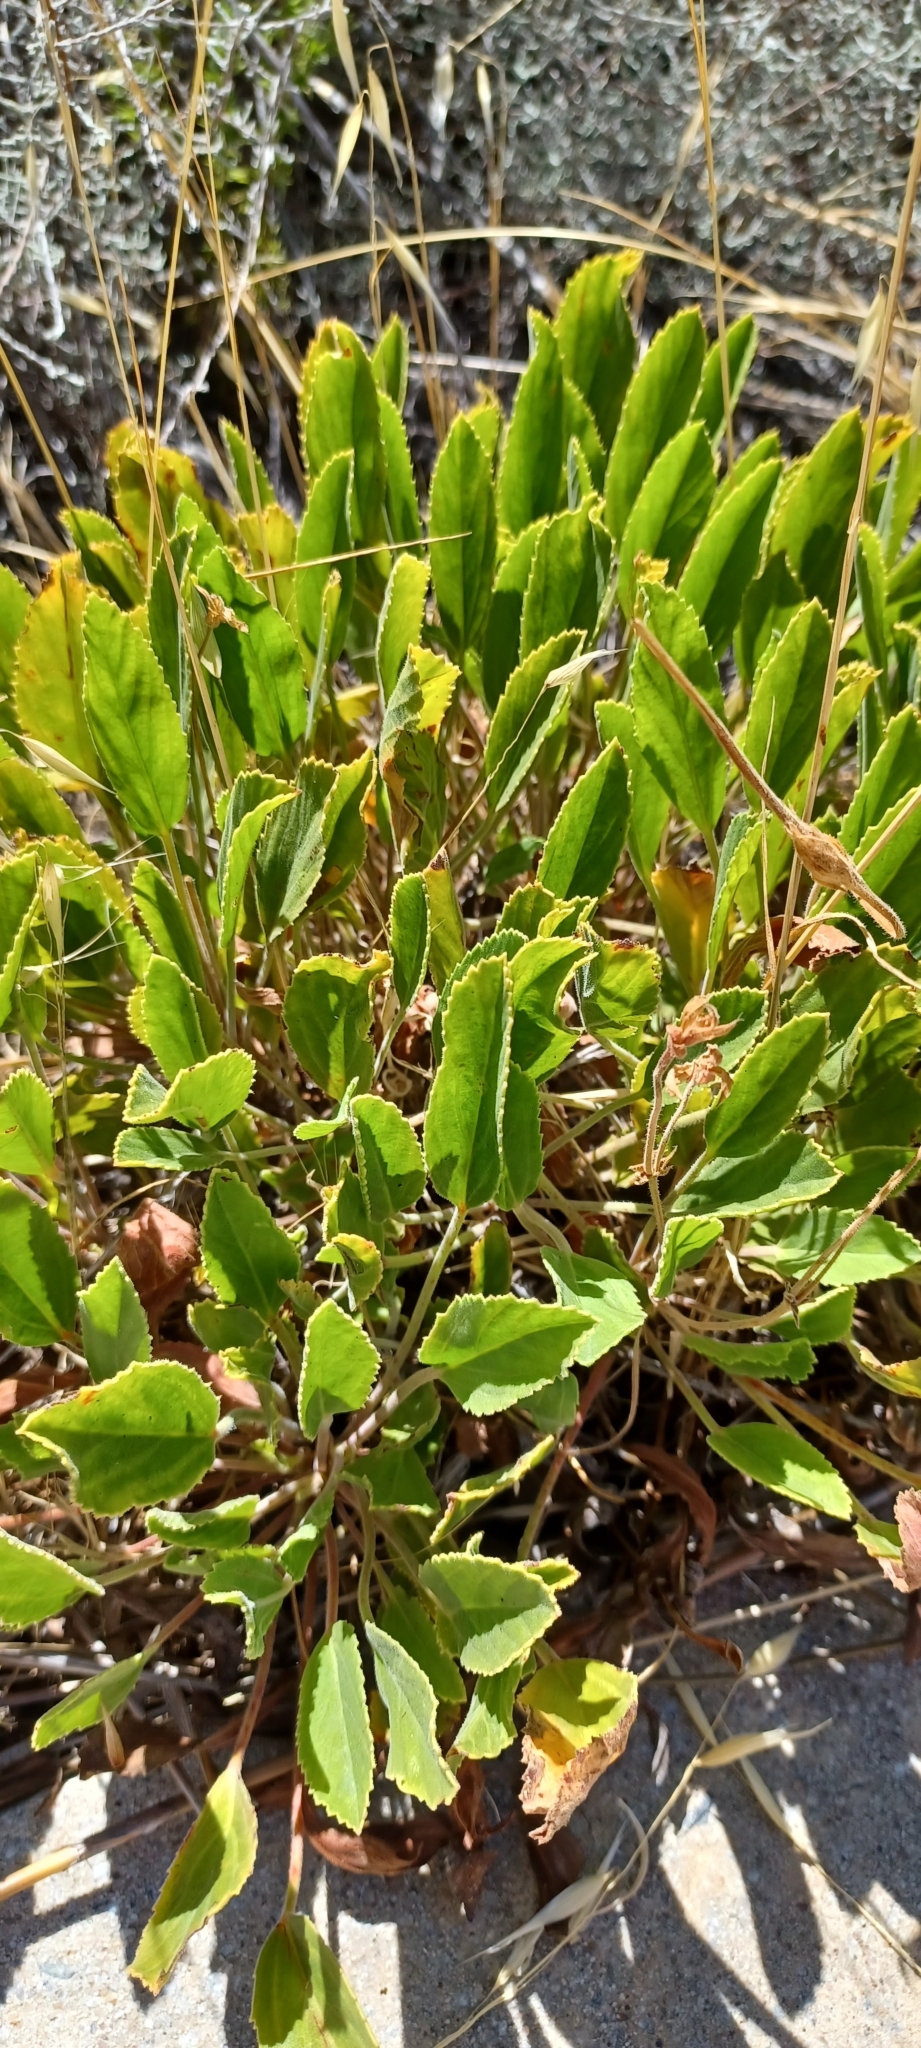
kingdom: Plantae
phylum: Tracheophyta
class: Magnoliopsida
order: Geraniales
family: Geraniaceae
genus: Pelargonium
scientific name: Pelargonium ovale
